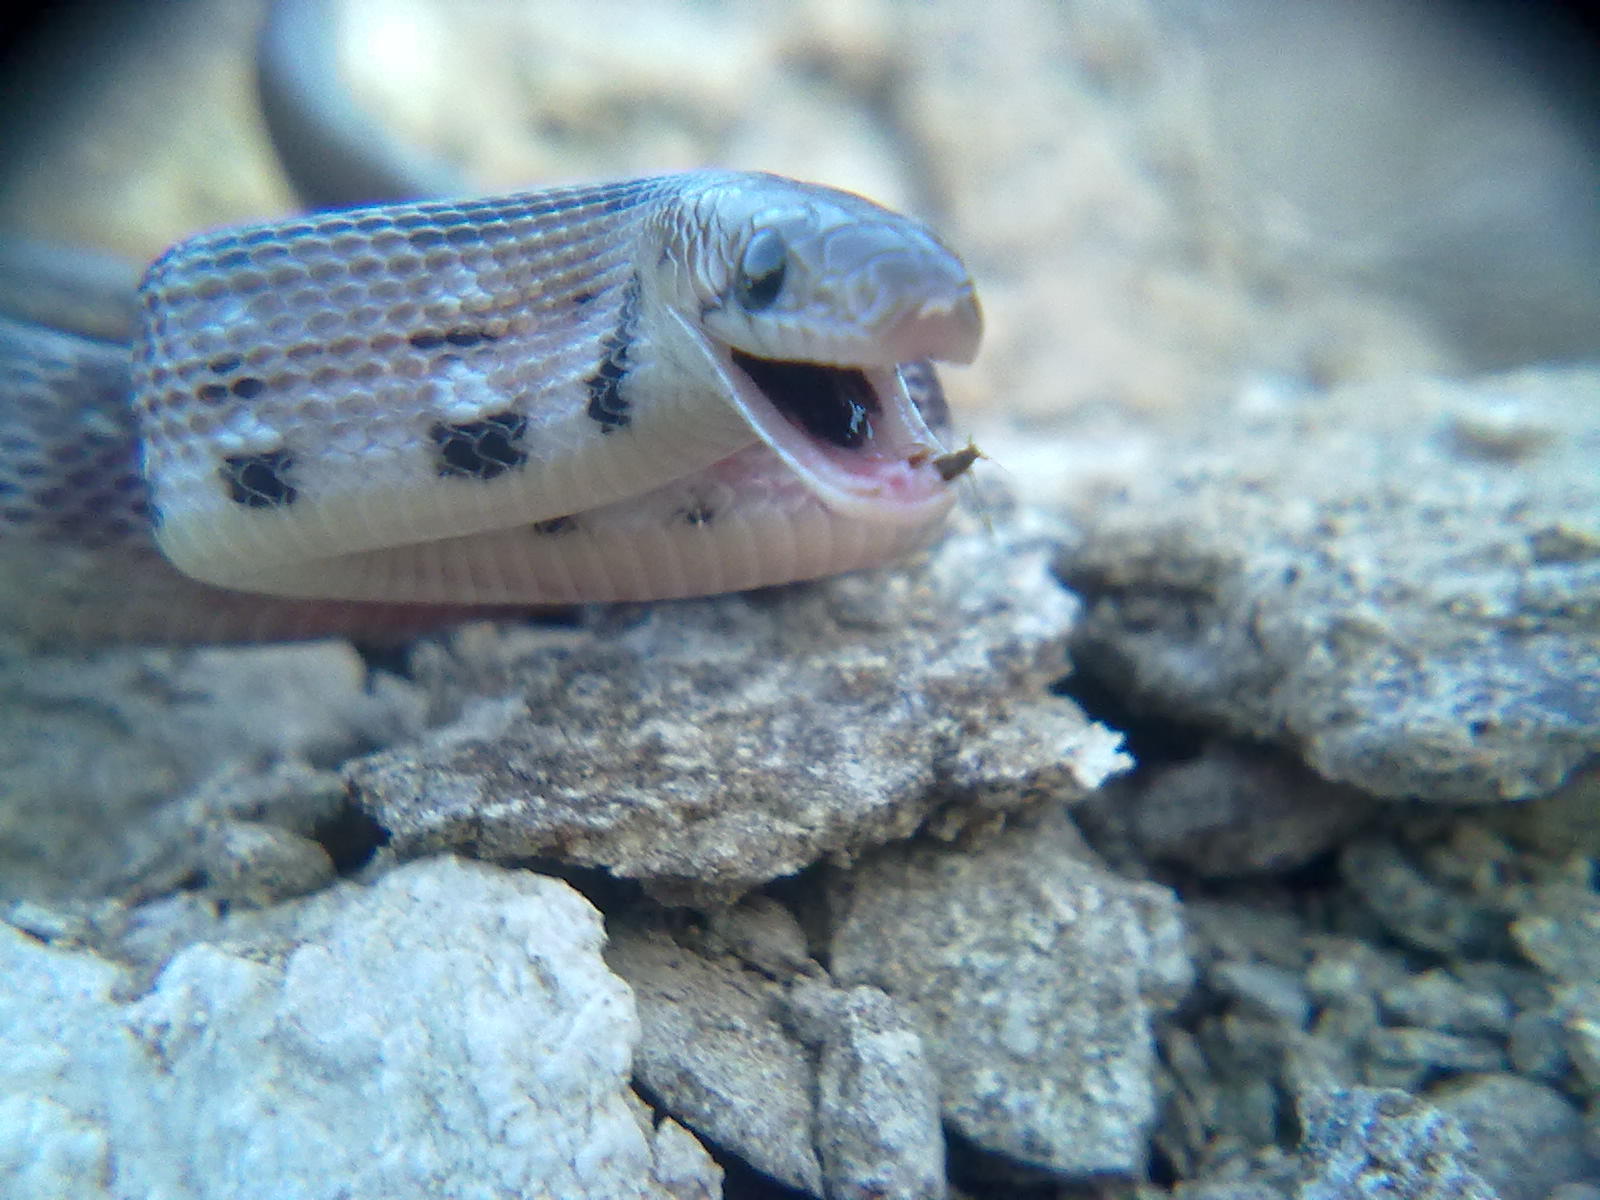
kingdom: Animalia
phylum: Chordata
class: Squamata
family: Colubridae
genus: Coelognathus
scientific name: Coelognathus helena
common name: Trinket snake
